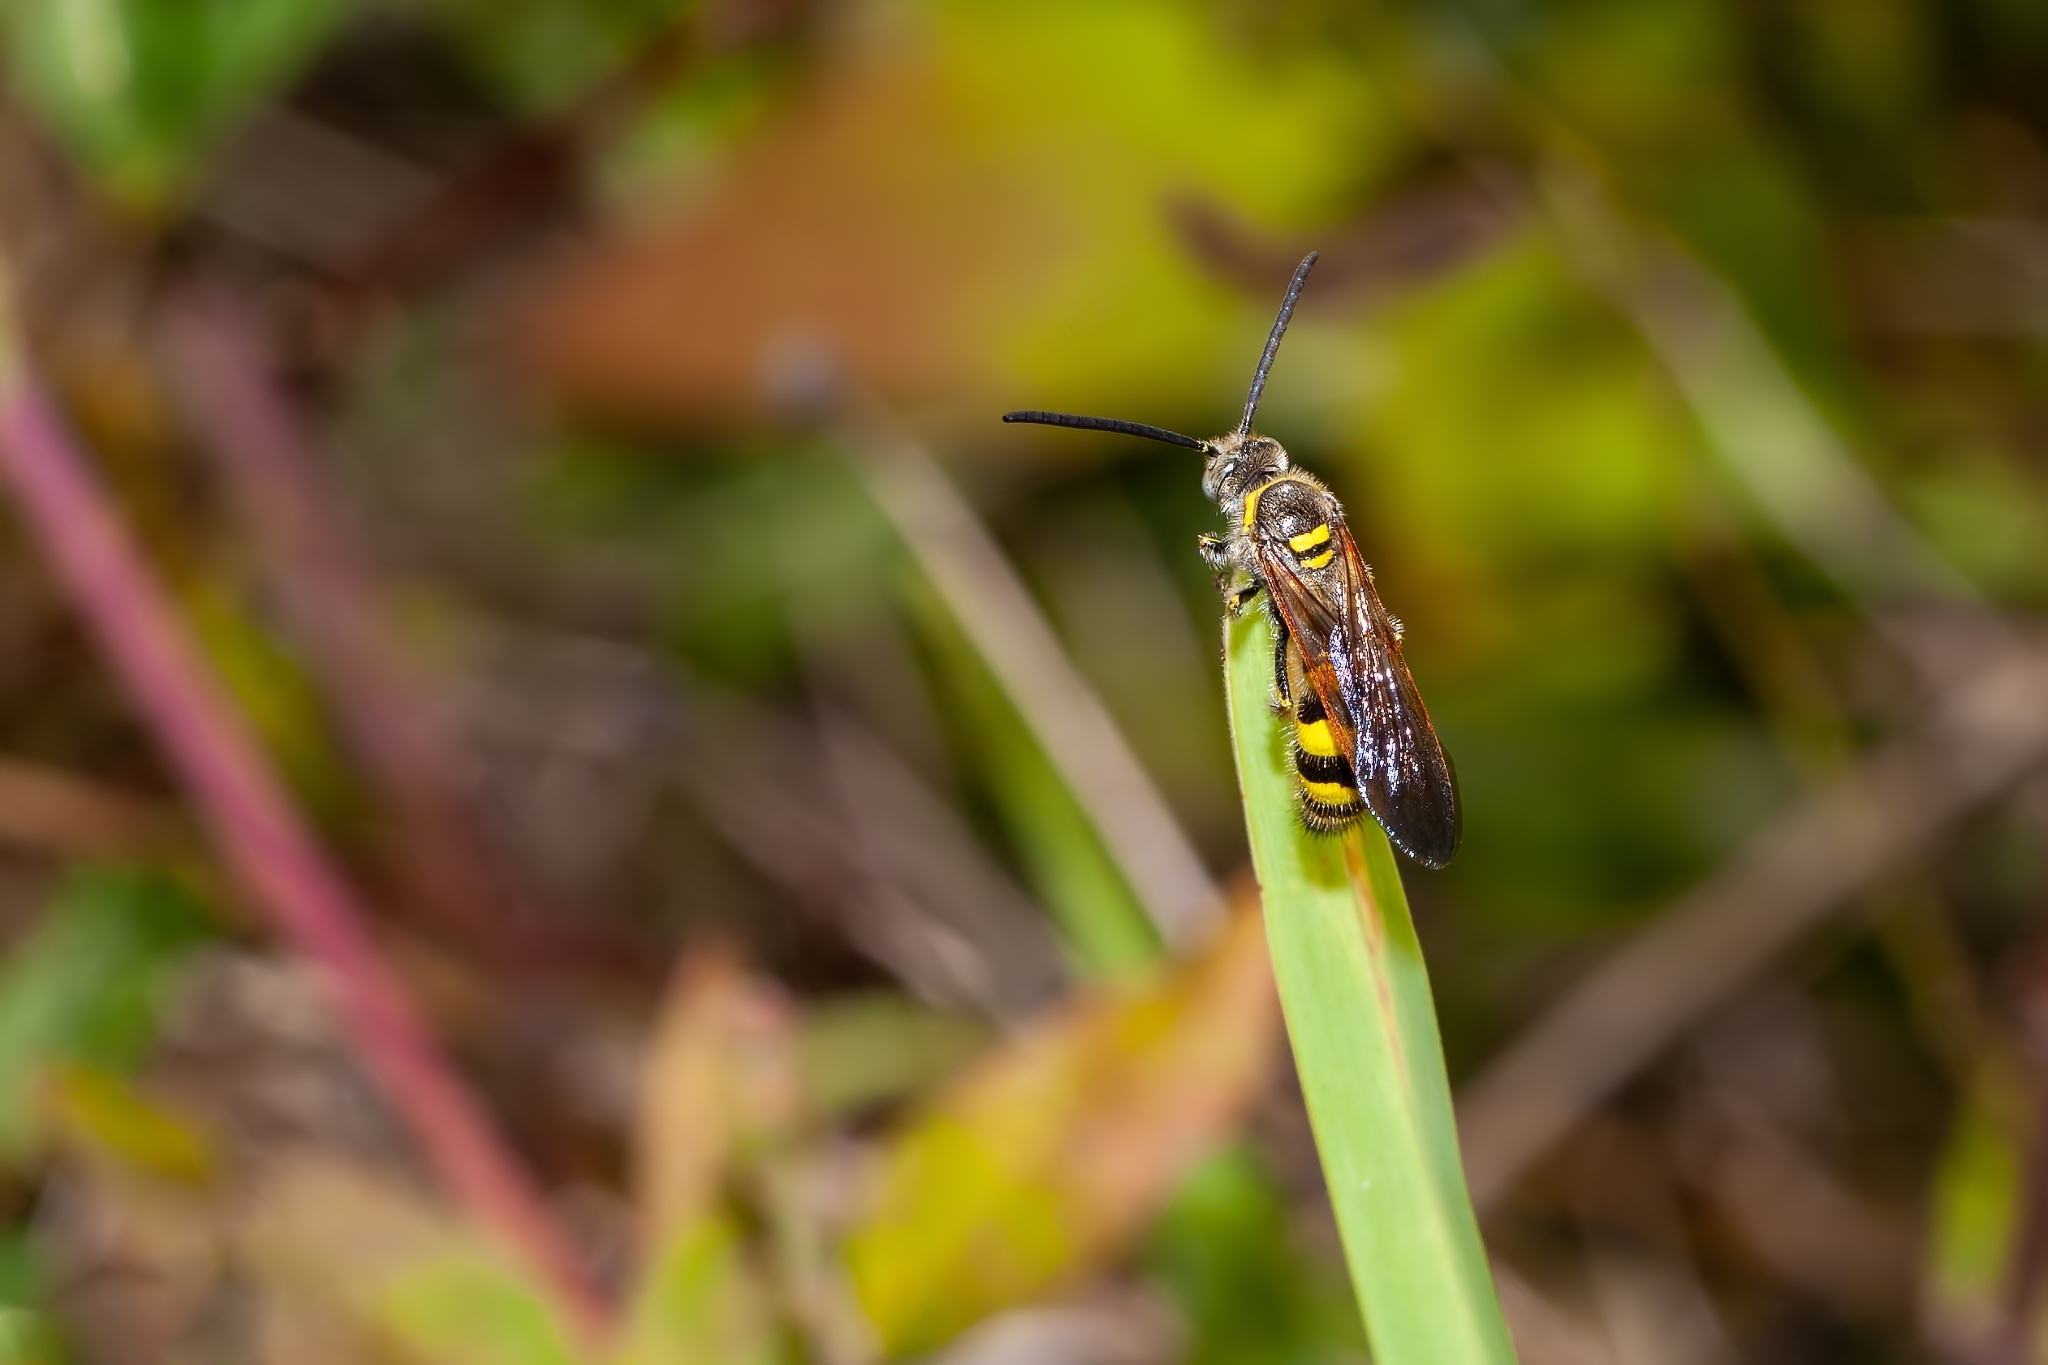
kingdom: Animalia
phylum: Arthropoda
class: Insecta
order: Hymenoptera
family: Scoliidae
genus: Dielis
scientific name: Dielis
